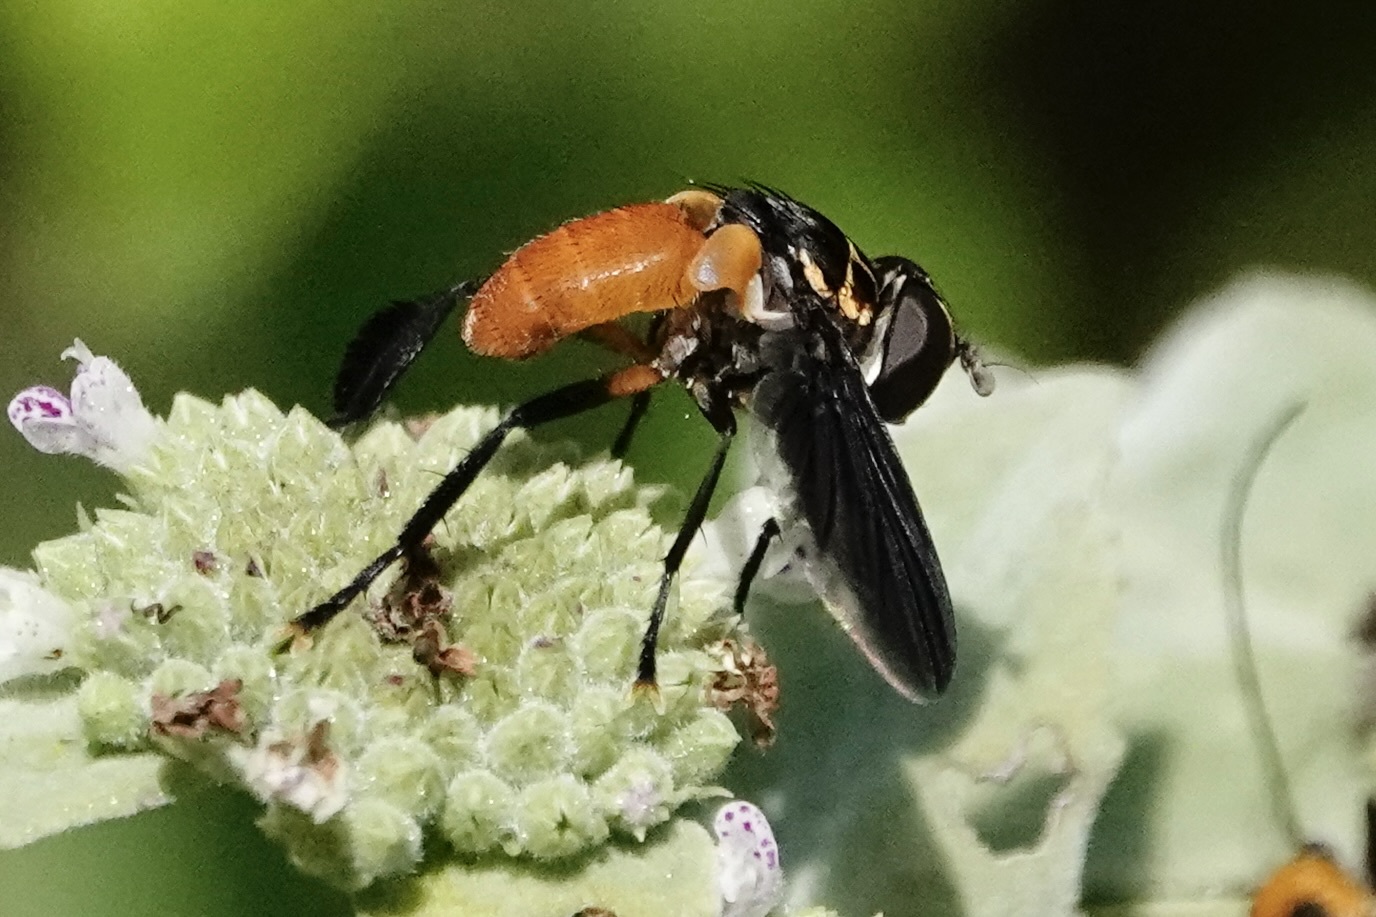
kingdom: Animalia
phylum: Arthropoda
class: Insecta
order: Diptera
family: Tachinidae
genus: Trichopoda
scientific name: Trichopoda pennipes
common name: Tachinid fly
